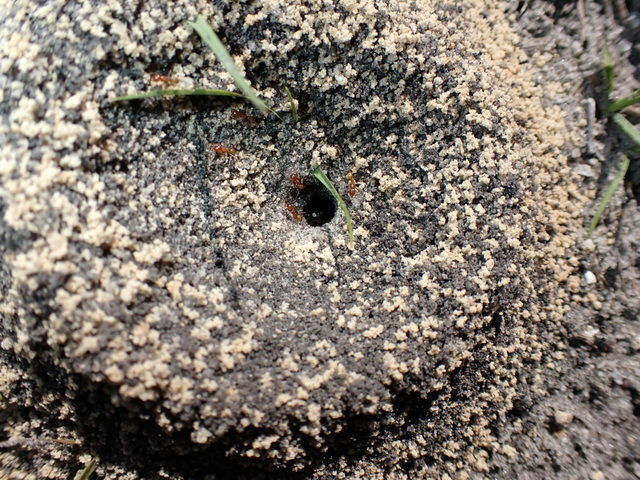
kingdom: Animalia
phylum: Arthropoda
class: Insecta
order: Hymenoptera
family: Formicidae
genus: Dorymyrmex
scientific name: Dorymyrmex bureni
